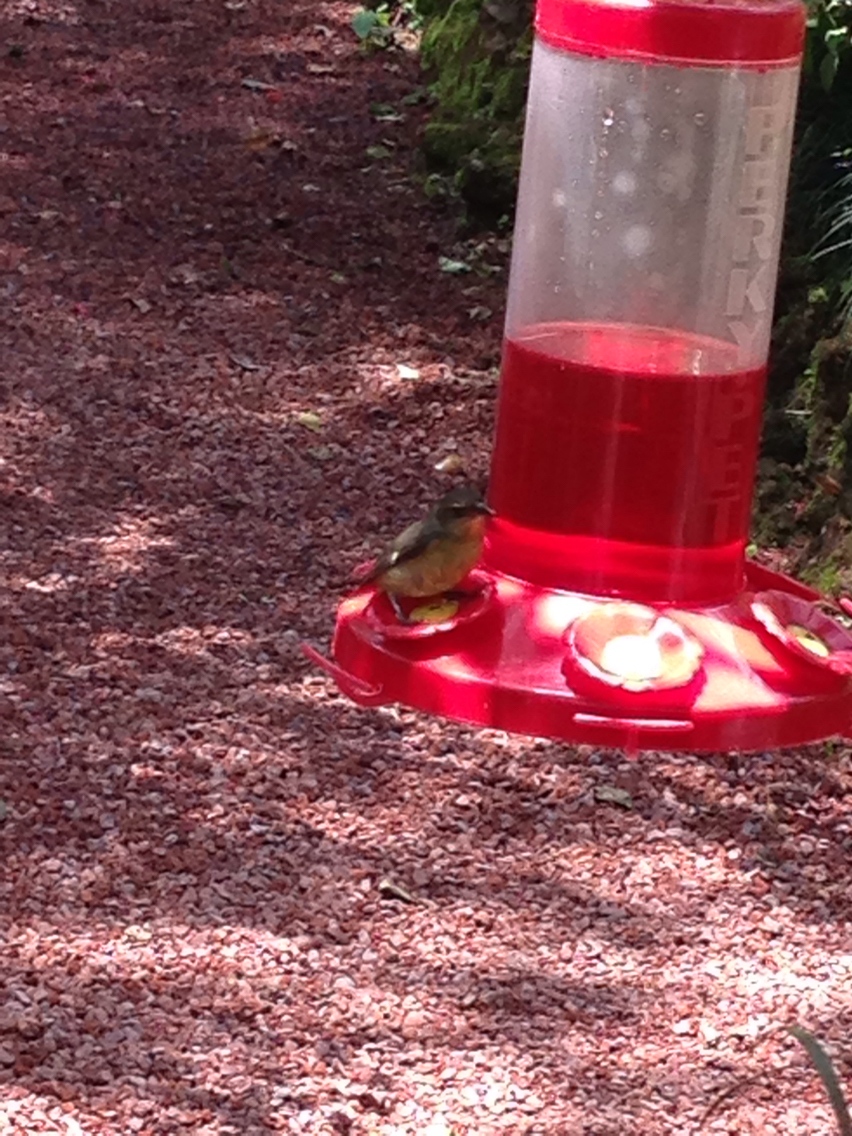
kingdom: Animalia
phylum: Chordata
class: Aves
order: Passeriformes
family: Thraupidae
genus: Coereba
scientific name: Coereba flaveola
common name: Bananaquit
